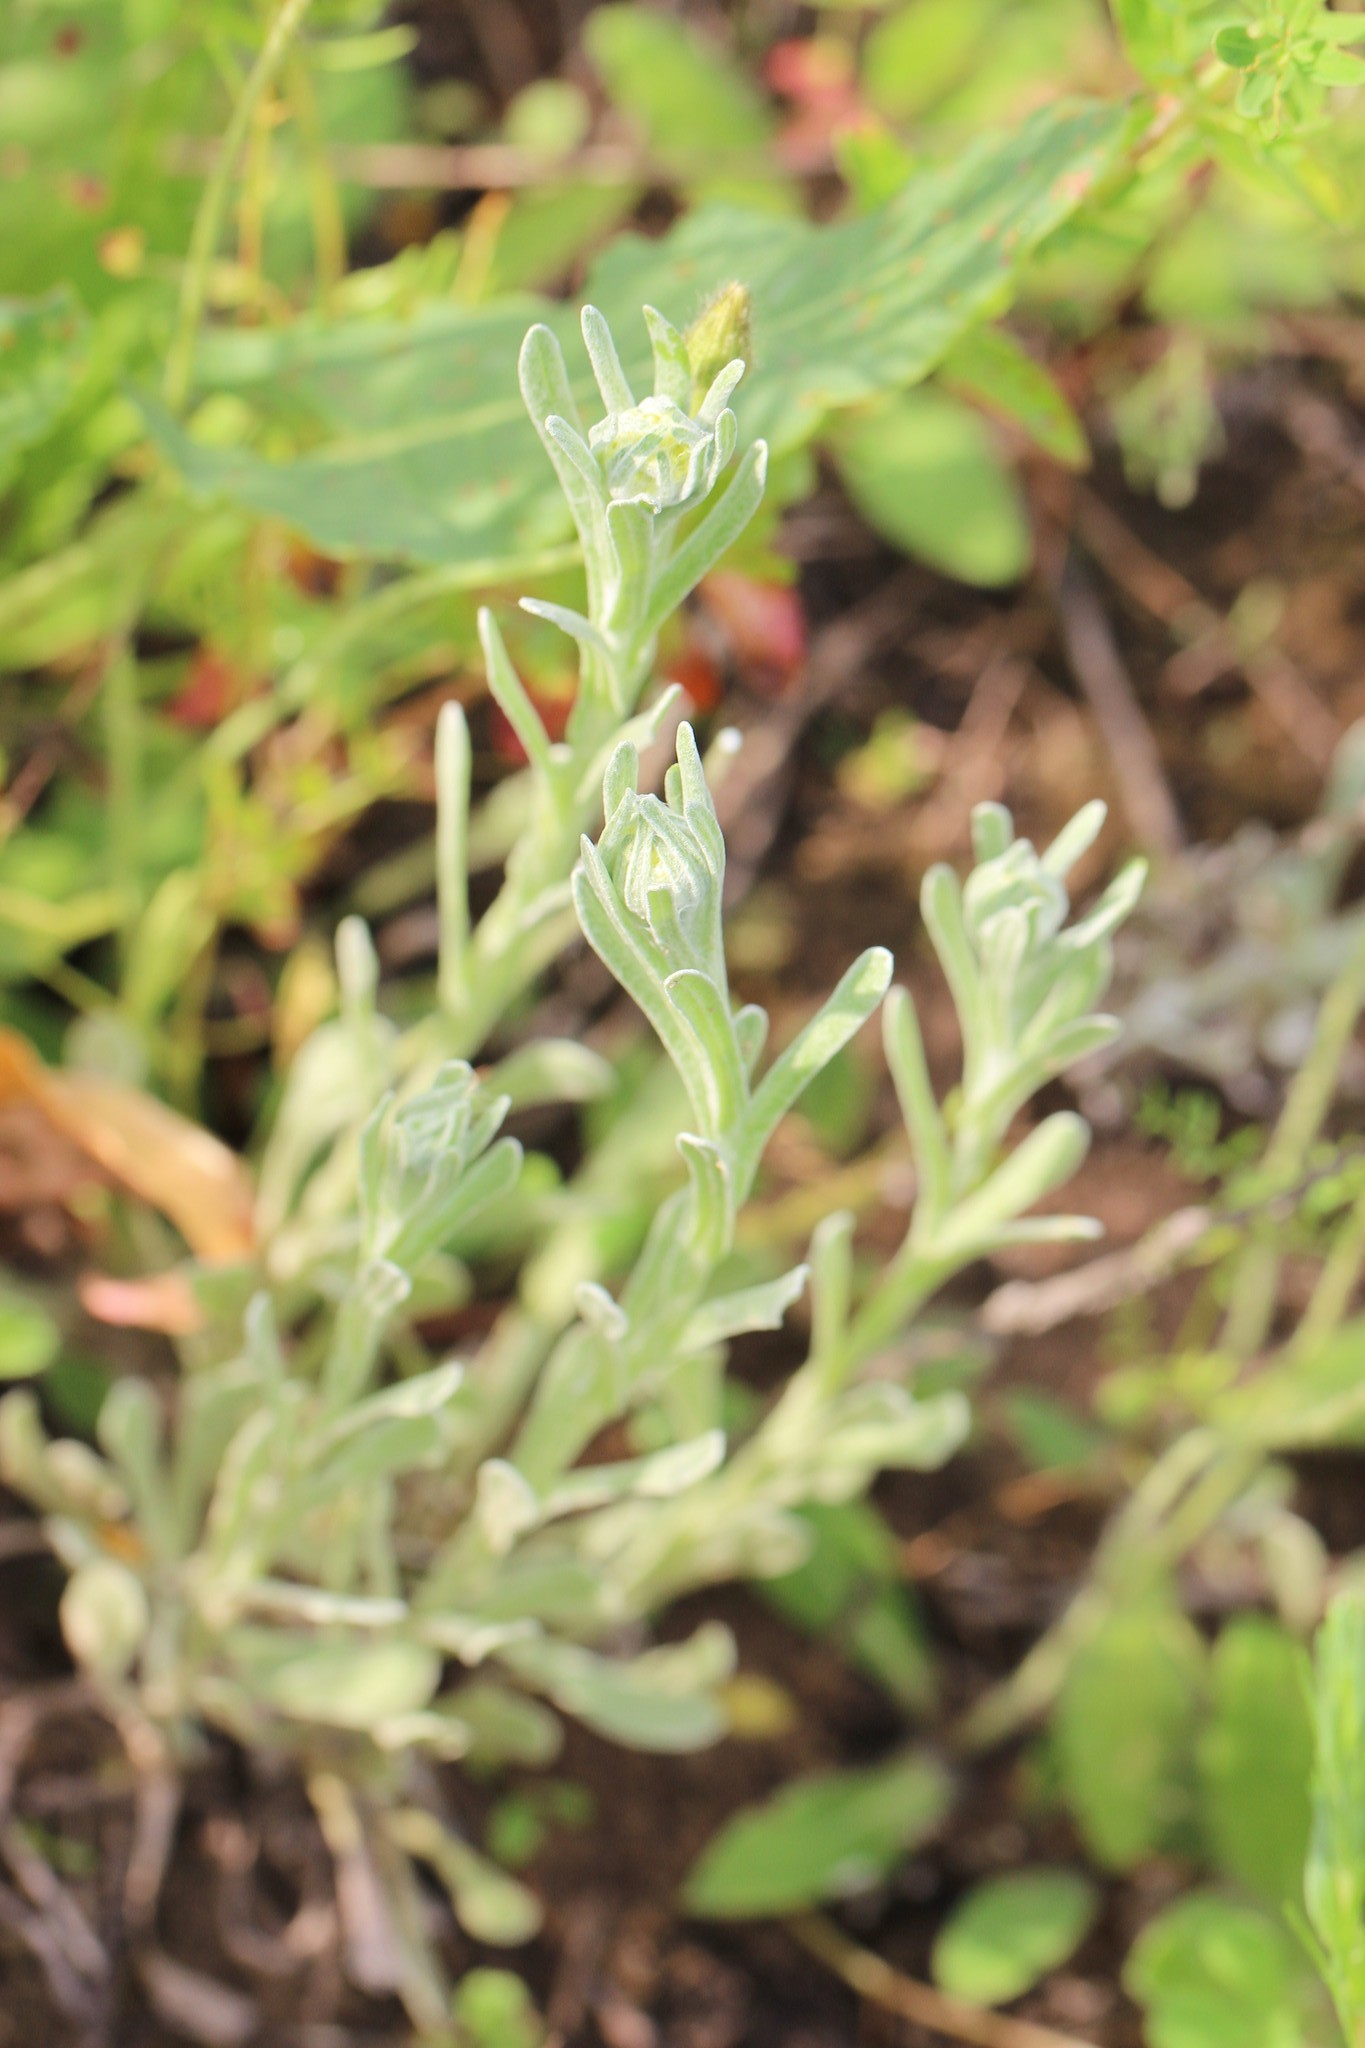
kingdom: Plantae
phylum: Tracheophyta
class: Magnoliopsida
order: Asterales
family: Asteraceae
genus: Helichrysum
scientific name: Helichrysum arenarium
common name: Strawflower
